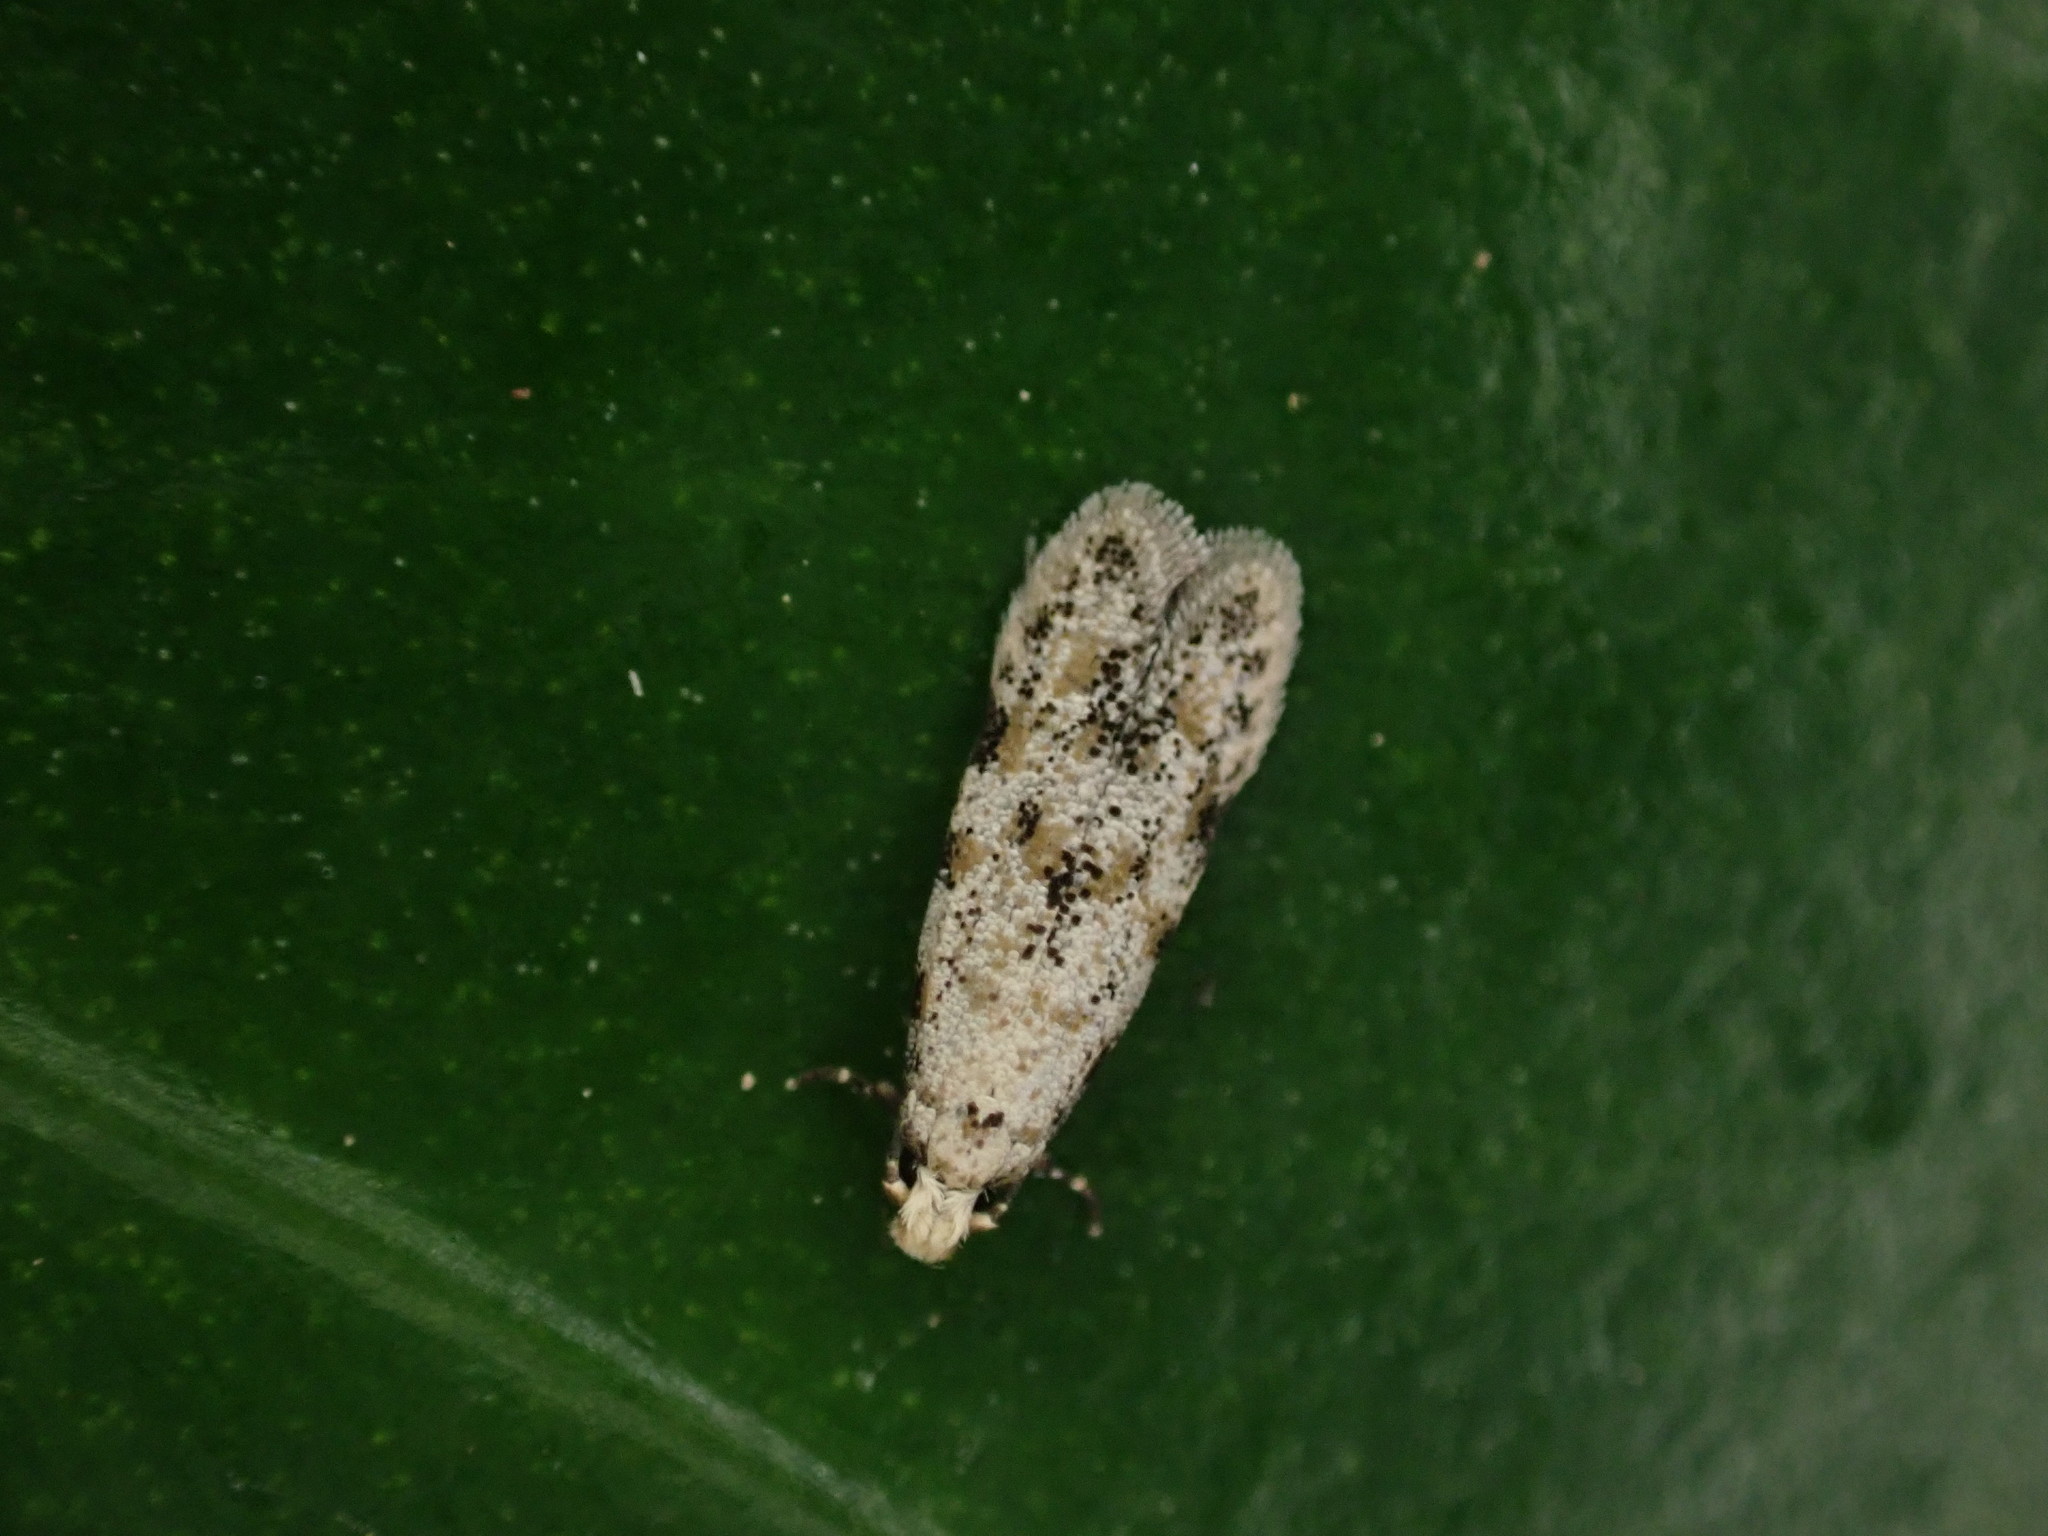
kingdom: Animalia
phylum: Arthropoda
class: Insecta
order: Lepidoptera
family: Tineidae
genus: Crypsitricha
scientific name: Crypsitricha stereota
